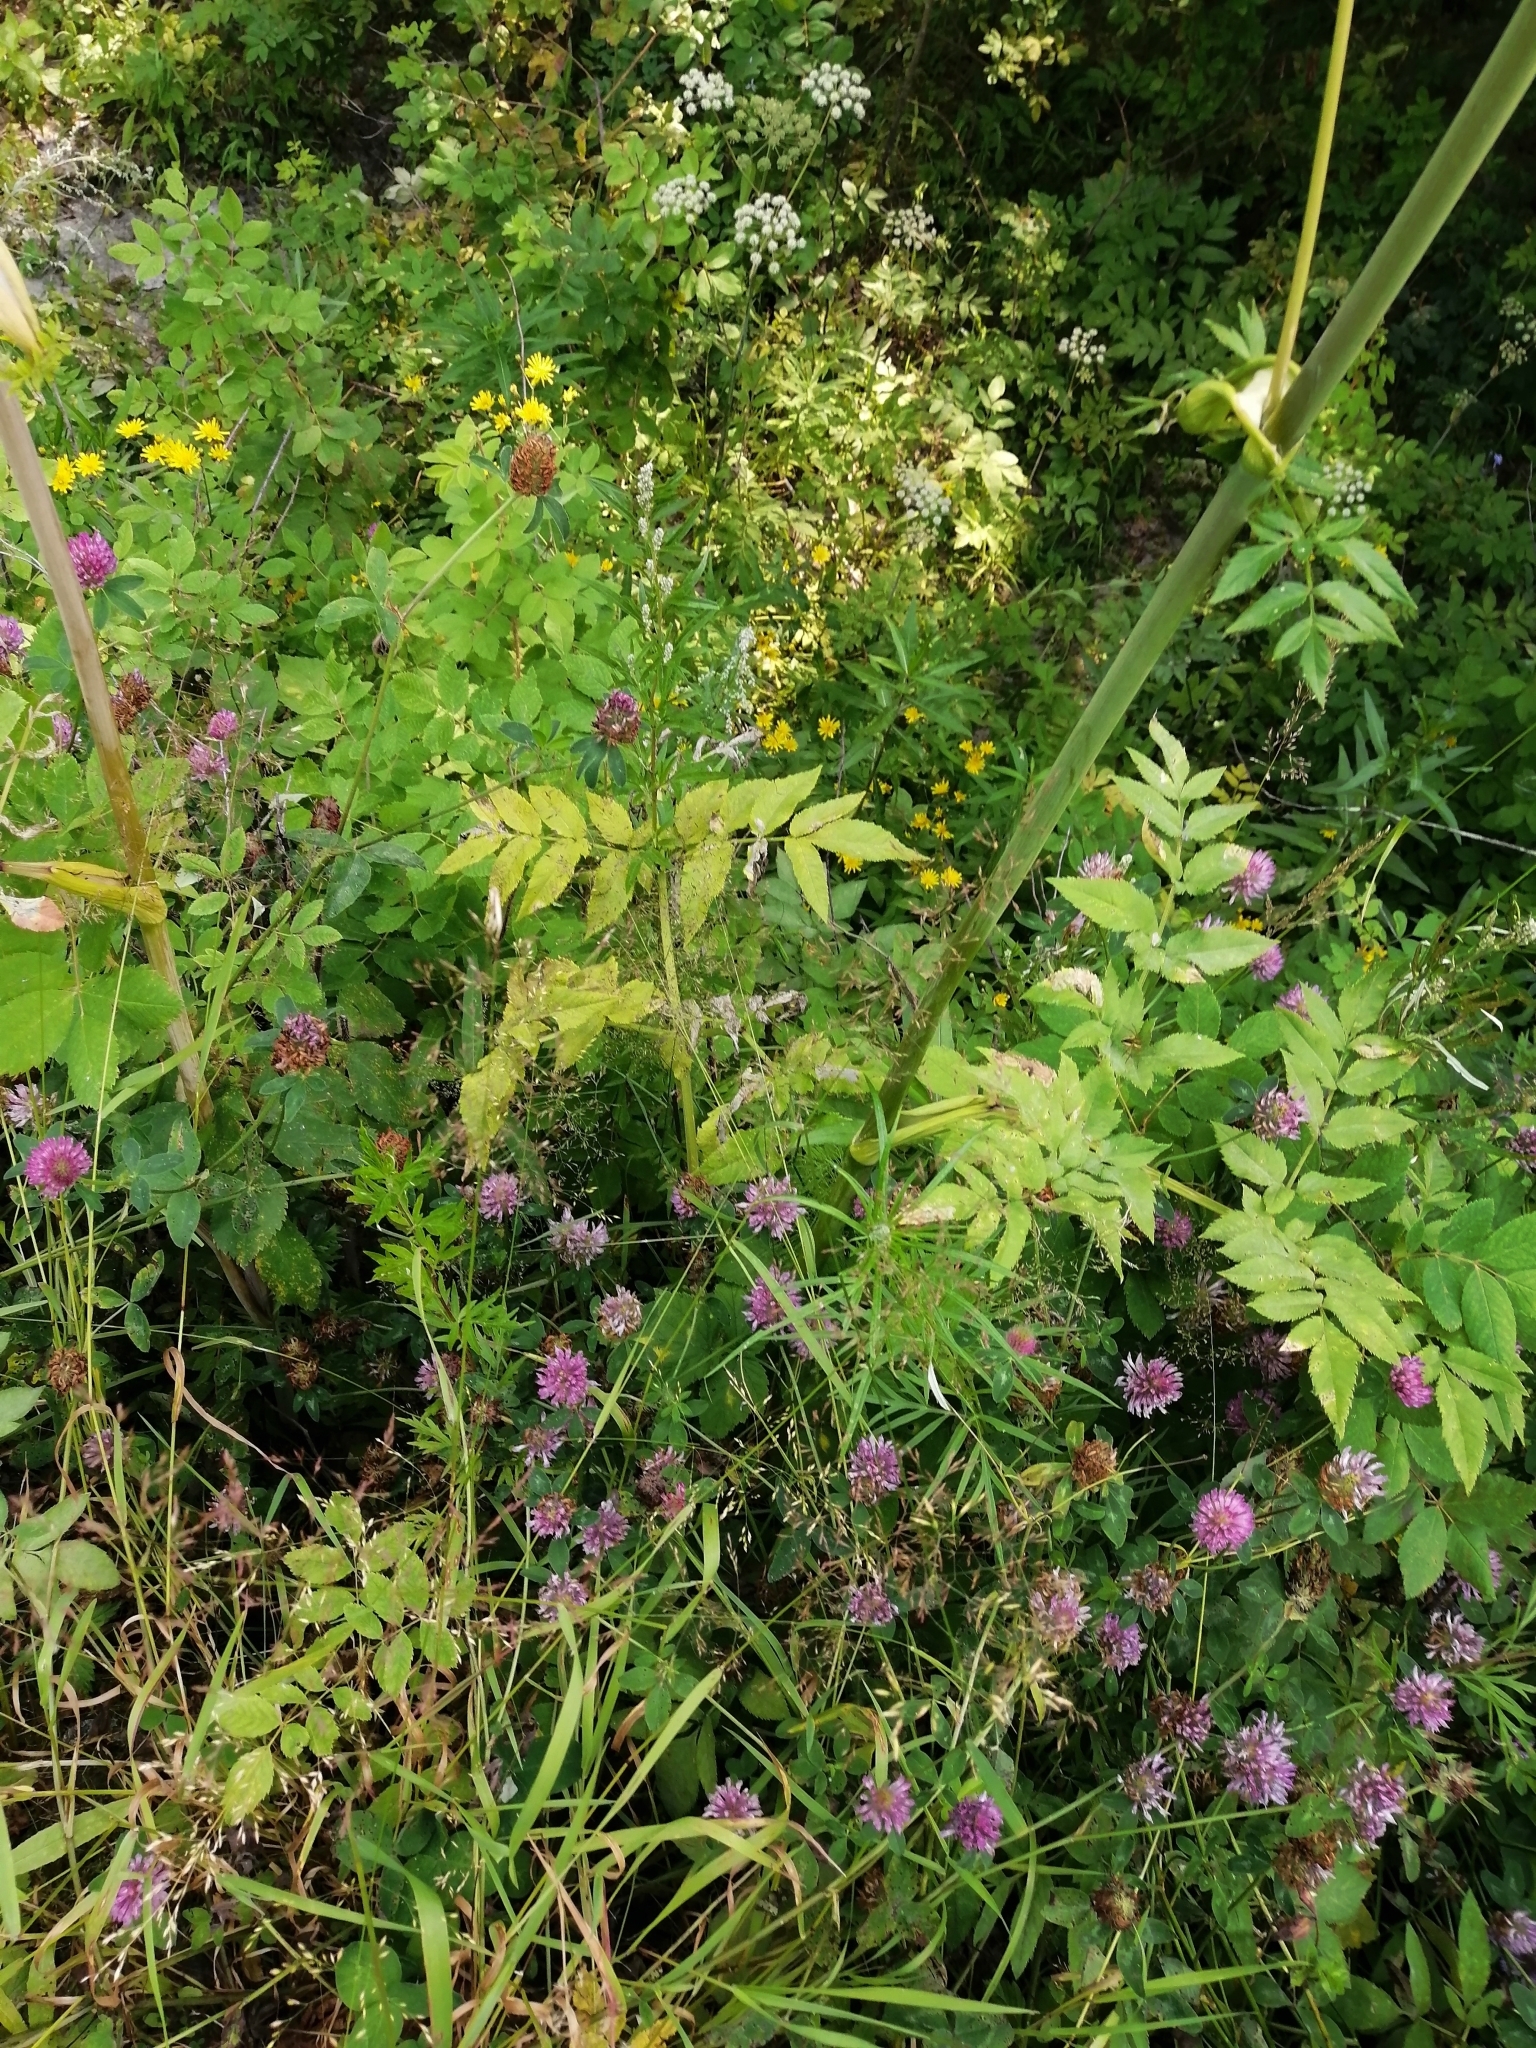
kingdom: Plantae
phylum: Tracheophyta
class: Magnoliopsida
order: Apiales
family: Apiaceae
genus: Angelica
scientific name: Angelica sylvestris
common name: Wild angelica
